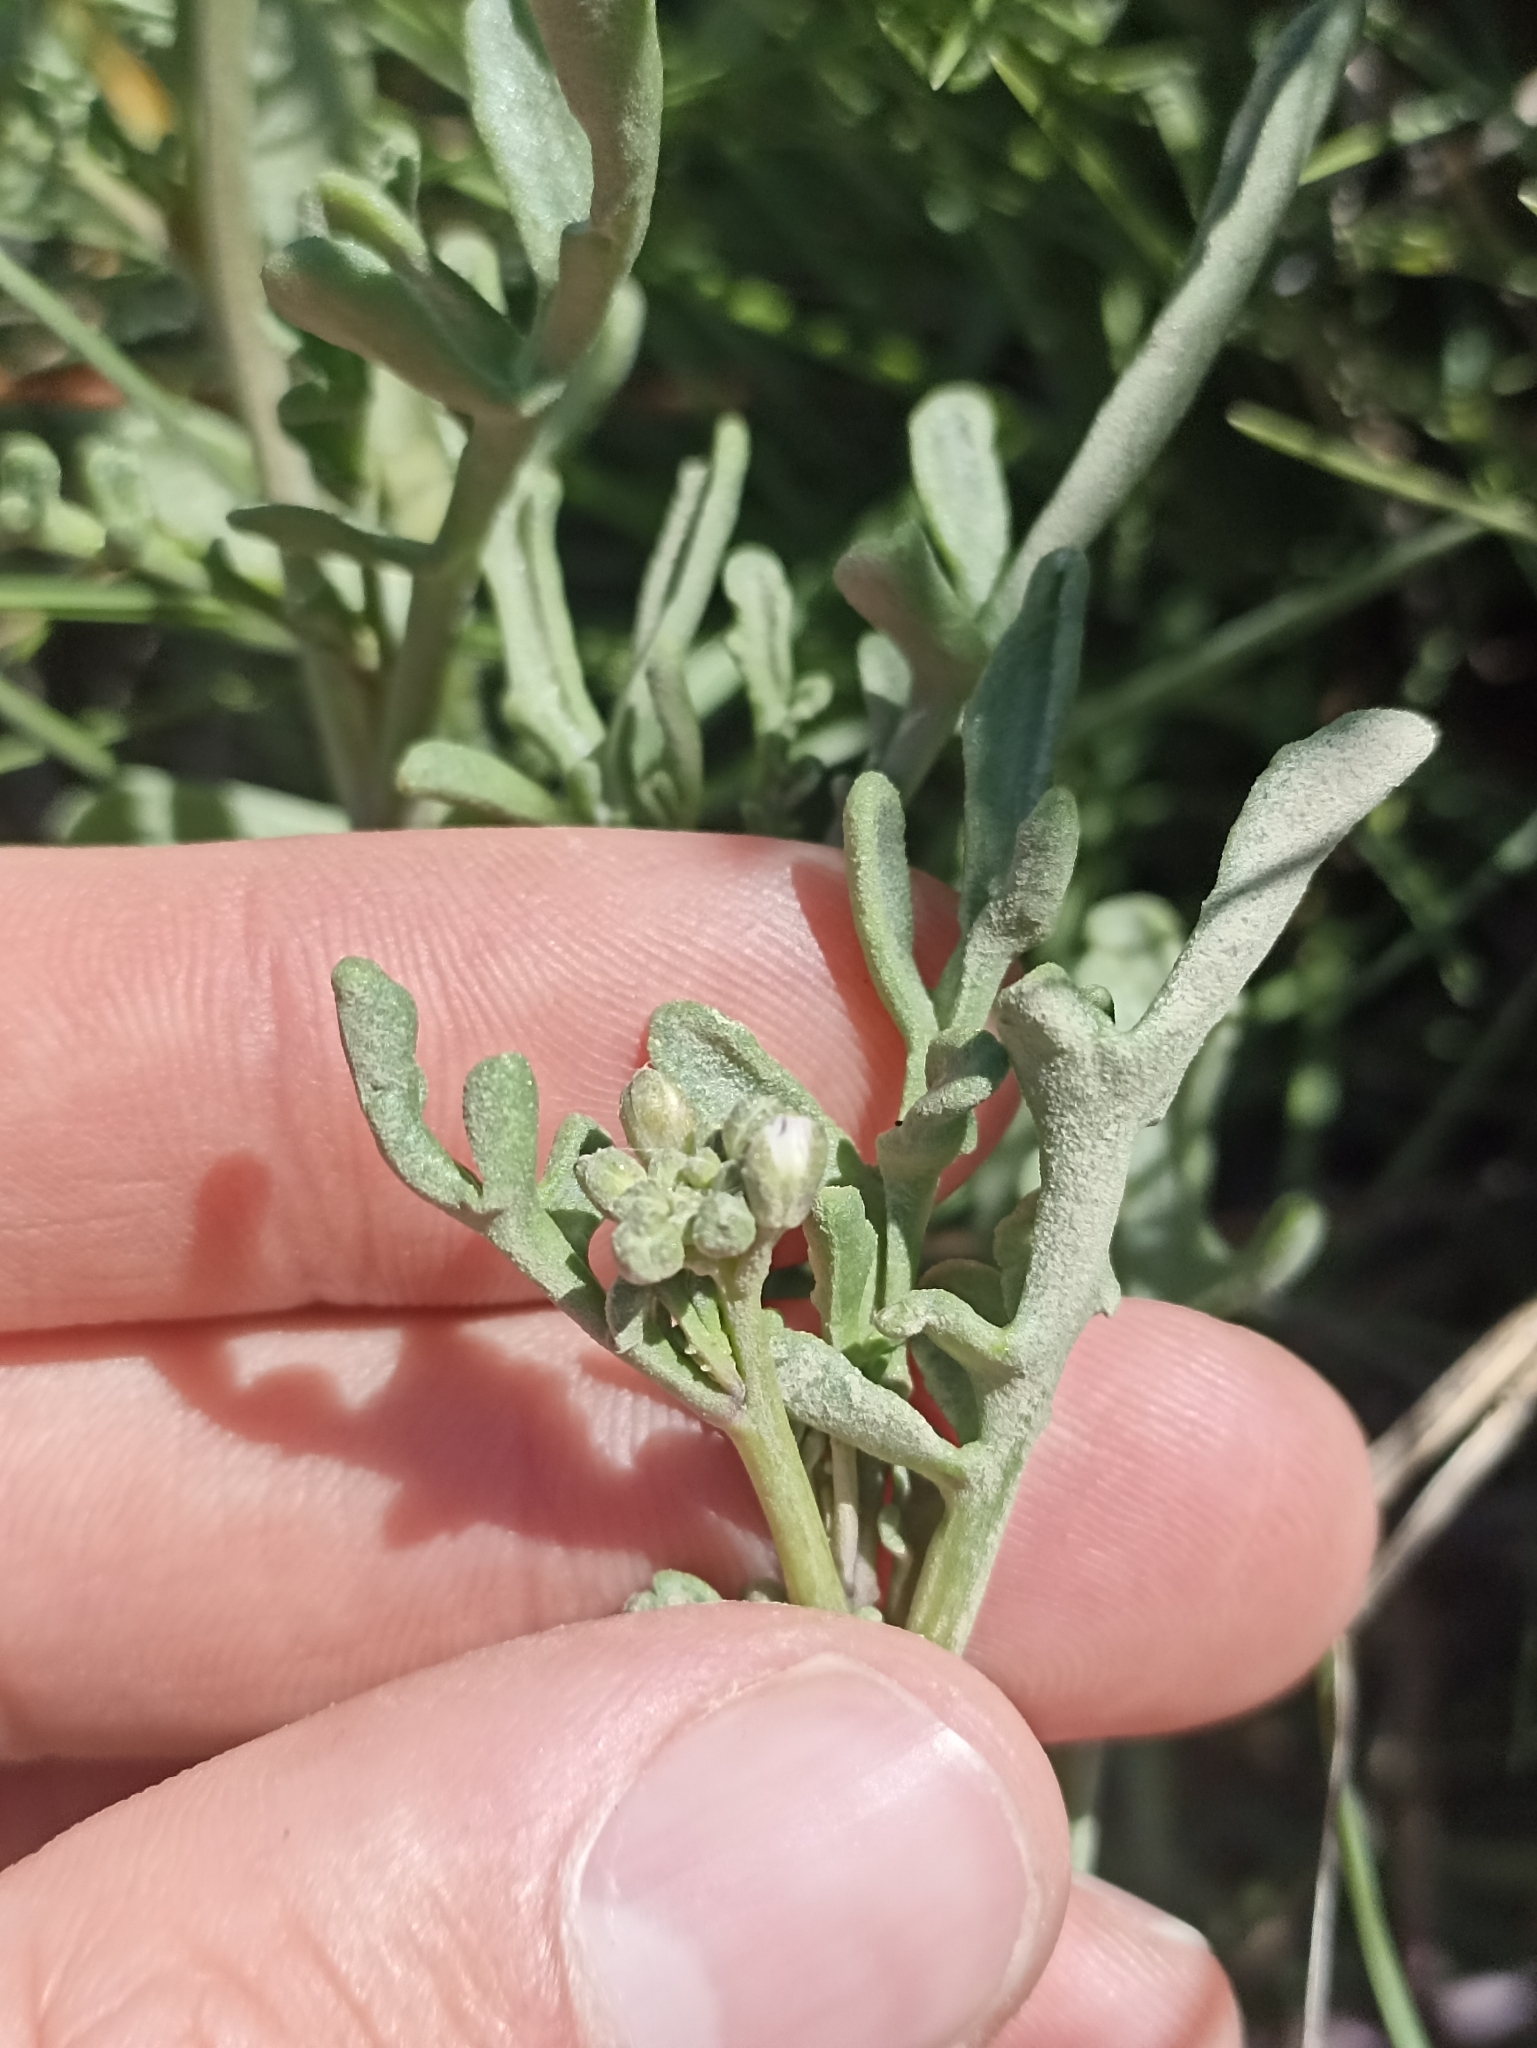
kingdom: Plantae
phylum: Tracheophyta
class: Magnoliopsida
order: Brassicales
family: Brassicaceae
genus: Cakile
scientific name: Cakile maritima
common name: Sea rocket
